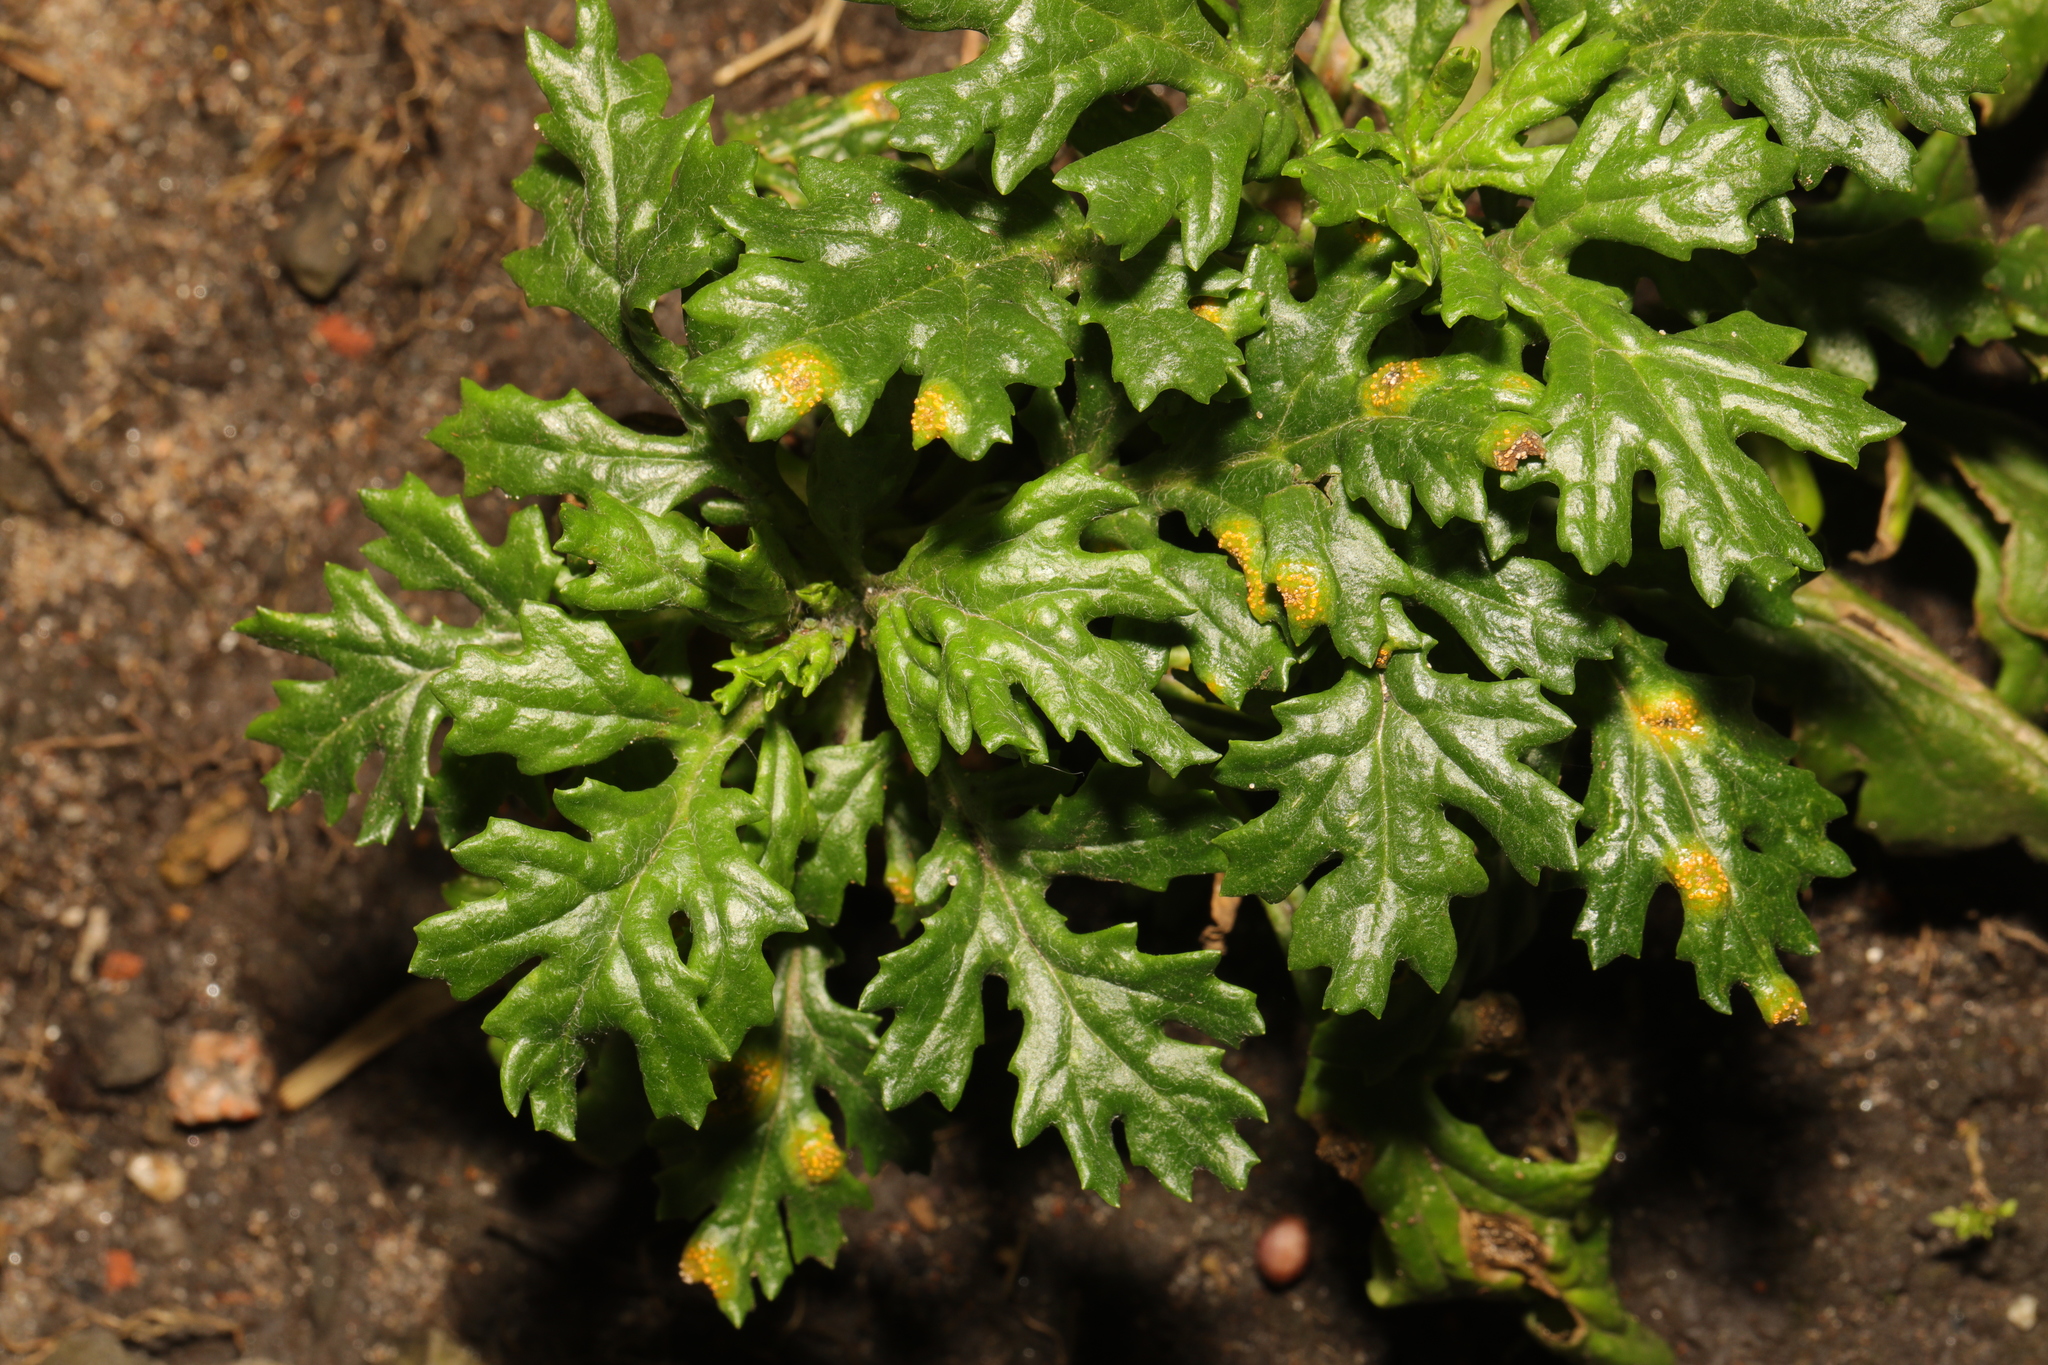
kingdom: Plantae
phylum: Tracheophyta
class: Magnoliopsida
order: Asterales
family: Asteraceae
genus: Senecio
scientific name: Senecio squalidus
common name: Oxford ragwort
